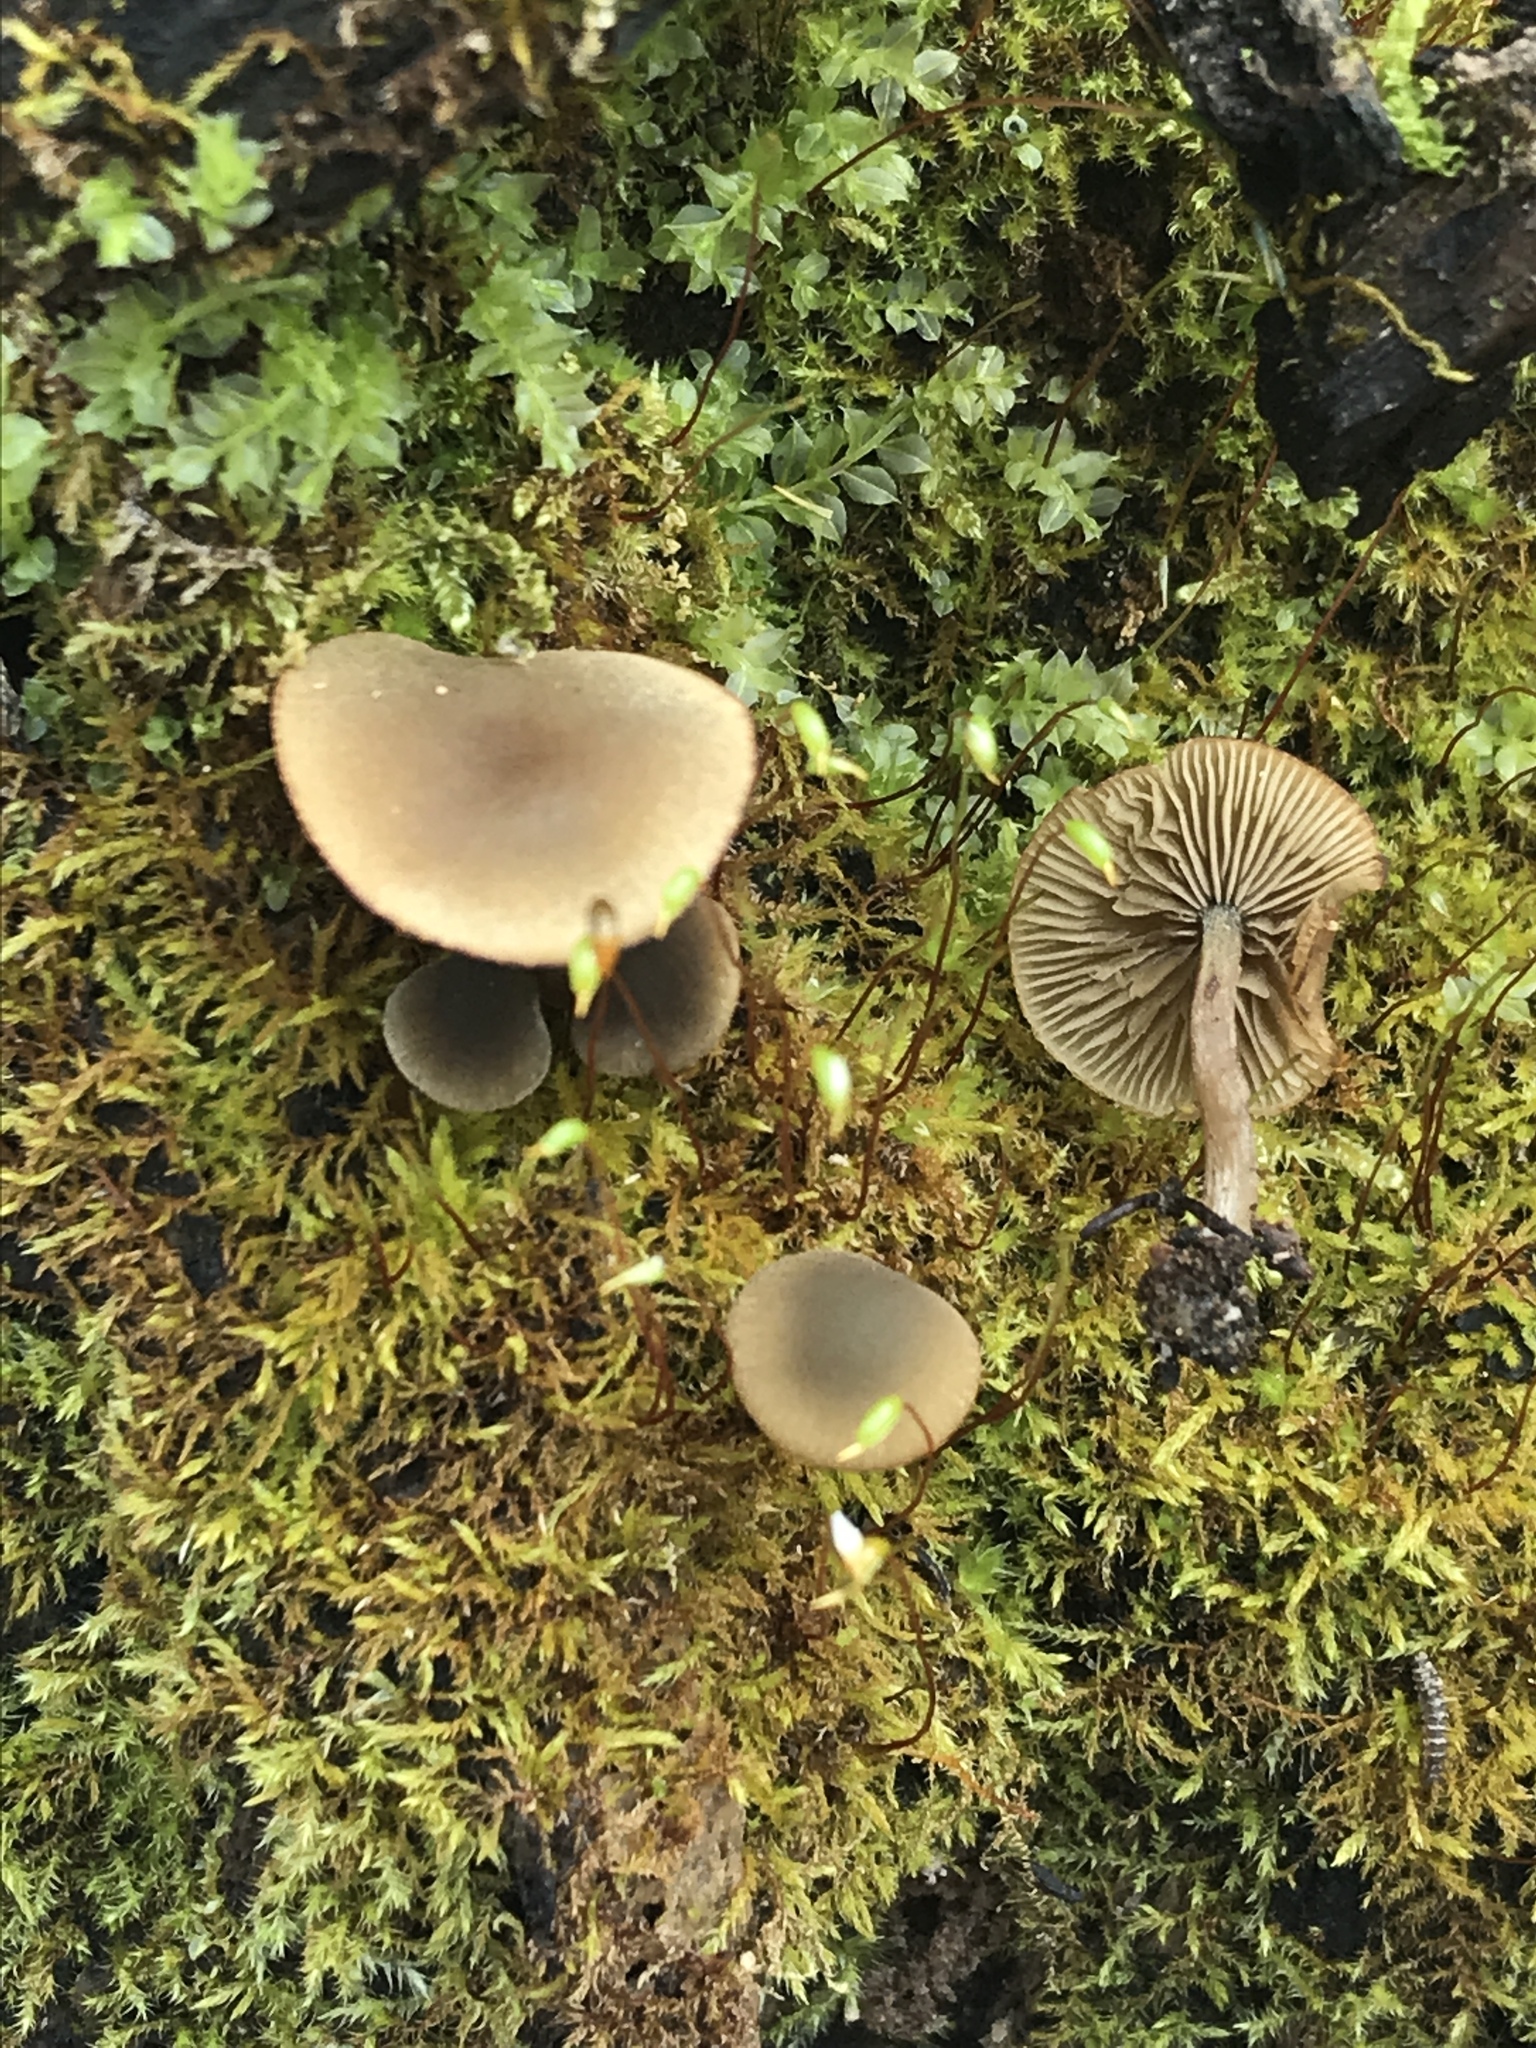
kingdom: Fungi
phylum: Basidiomycota
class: Agaricomycetes
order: Agaricales
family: Crepidotaceae
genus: Simocybe
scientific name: Simocybe centunculus
